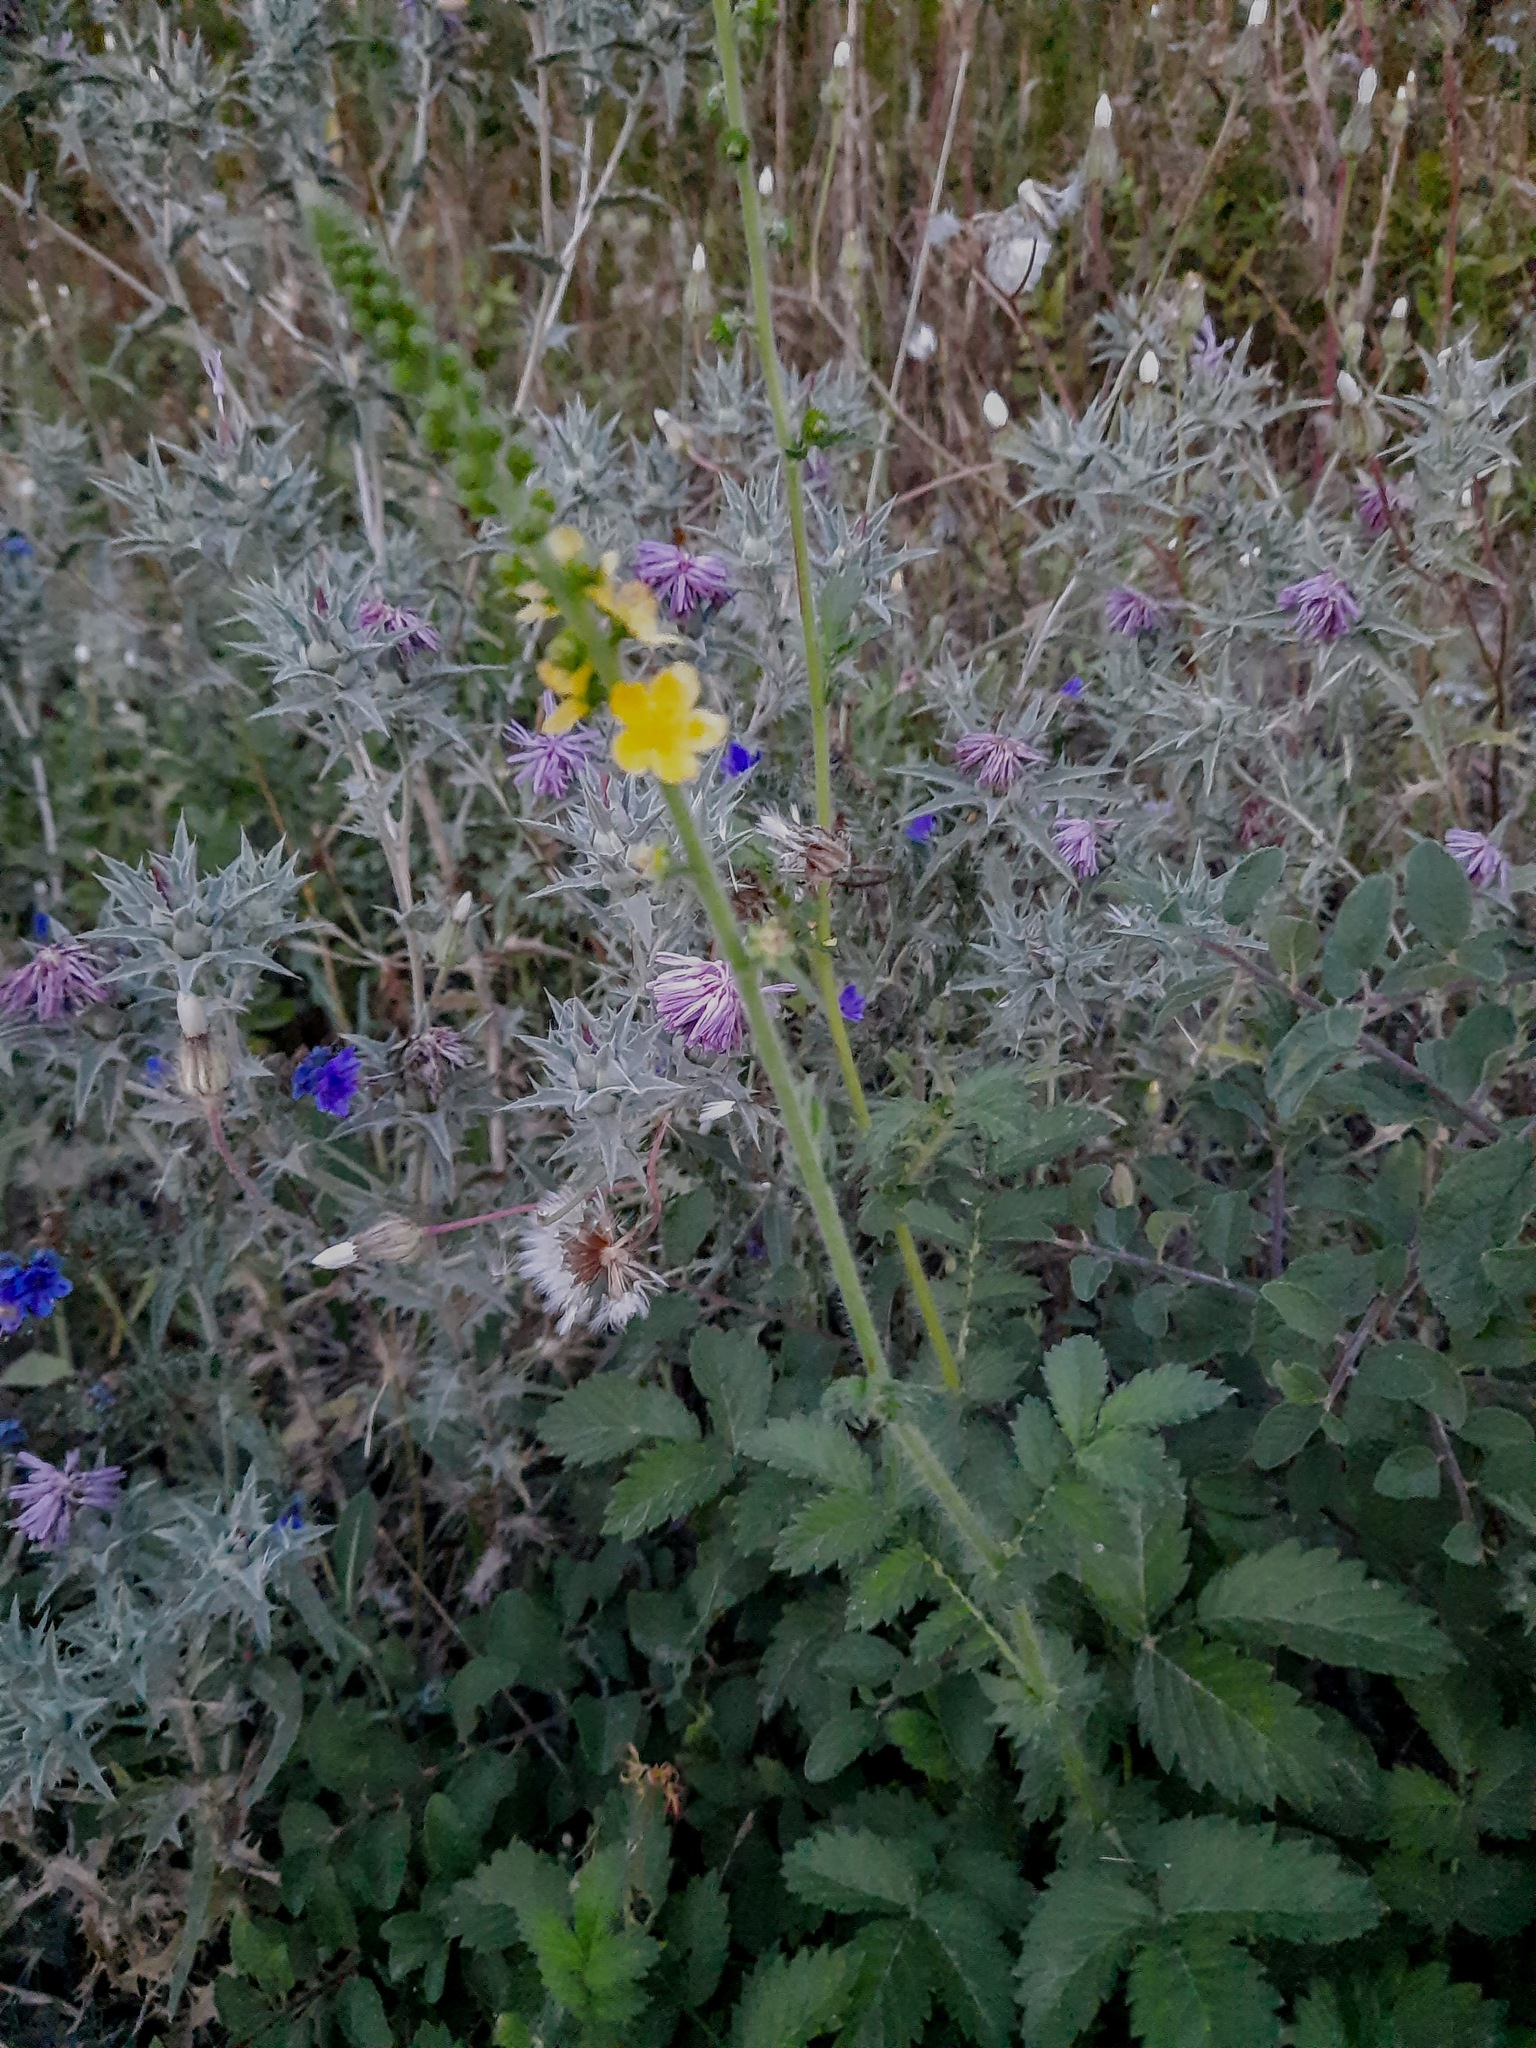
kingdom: Plantae
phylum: Tracheophyta
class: Magnoliopsida
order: Rosales
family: Rosaceae
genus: Agrimonia
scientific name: Agrimonia eupatoria
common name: Agrimony
